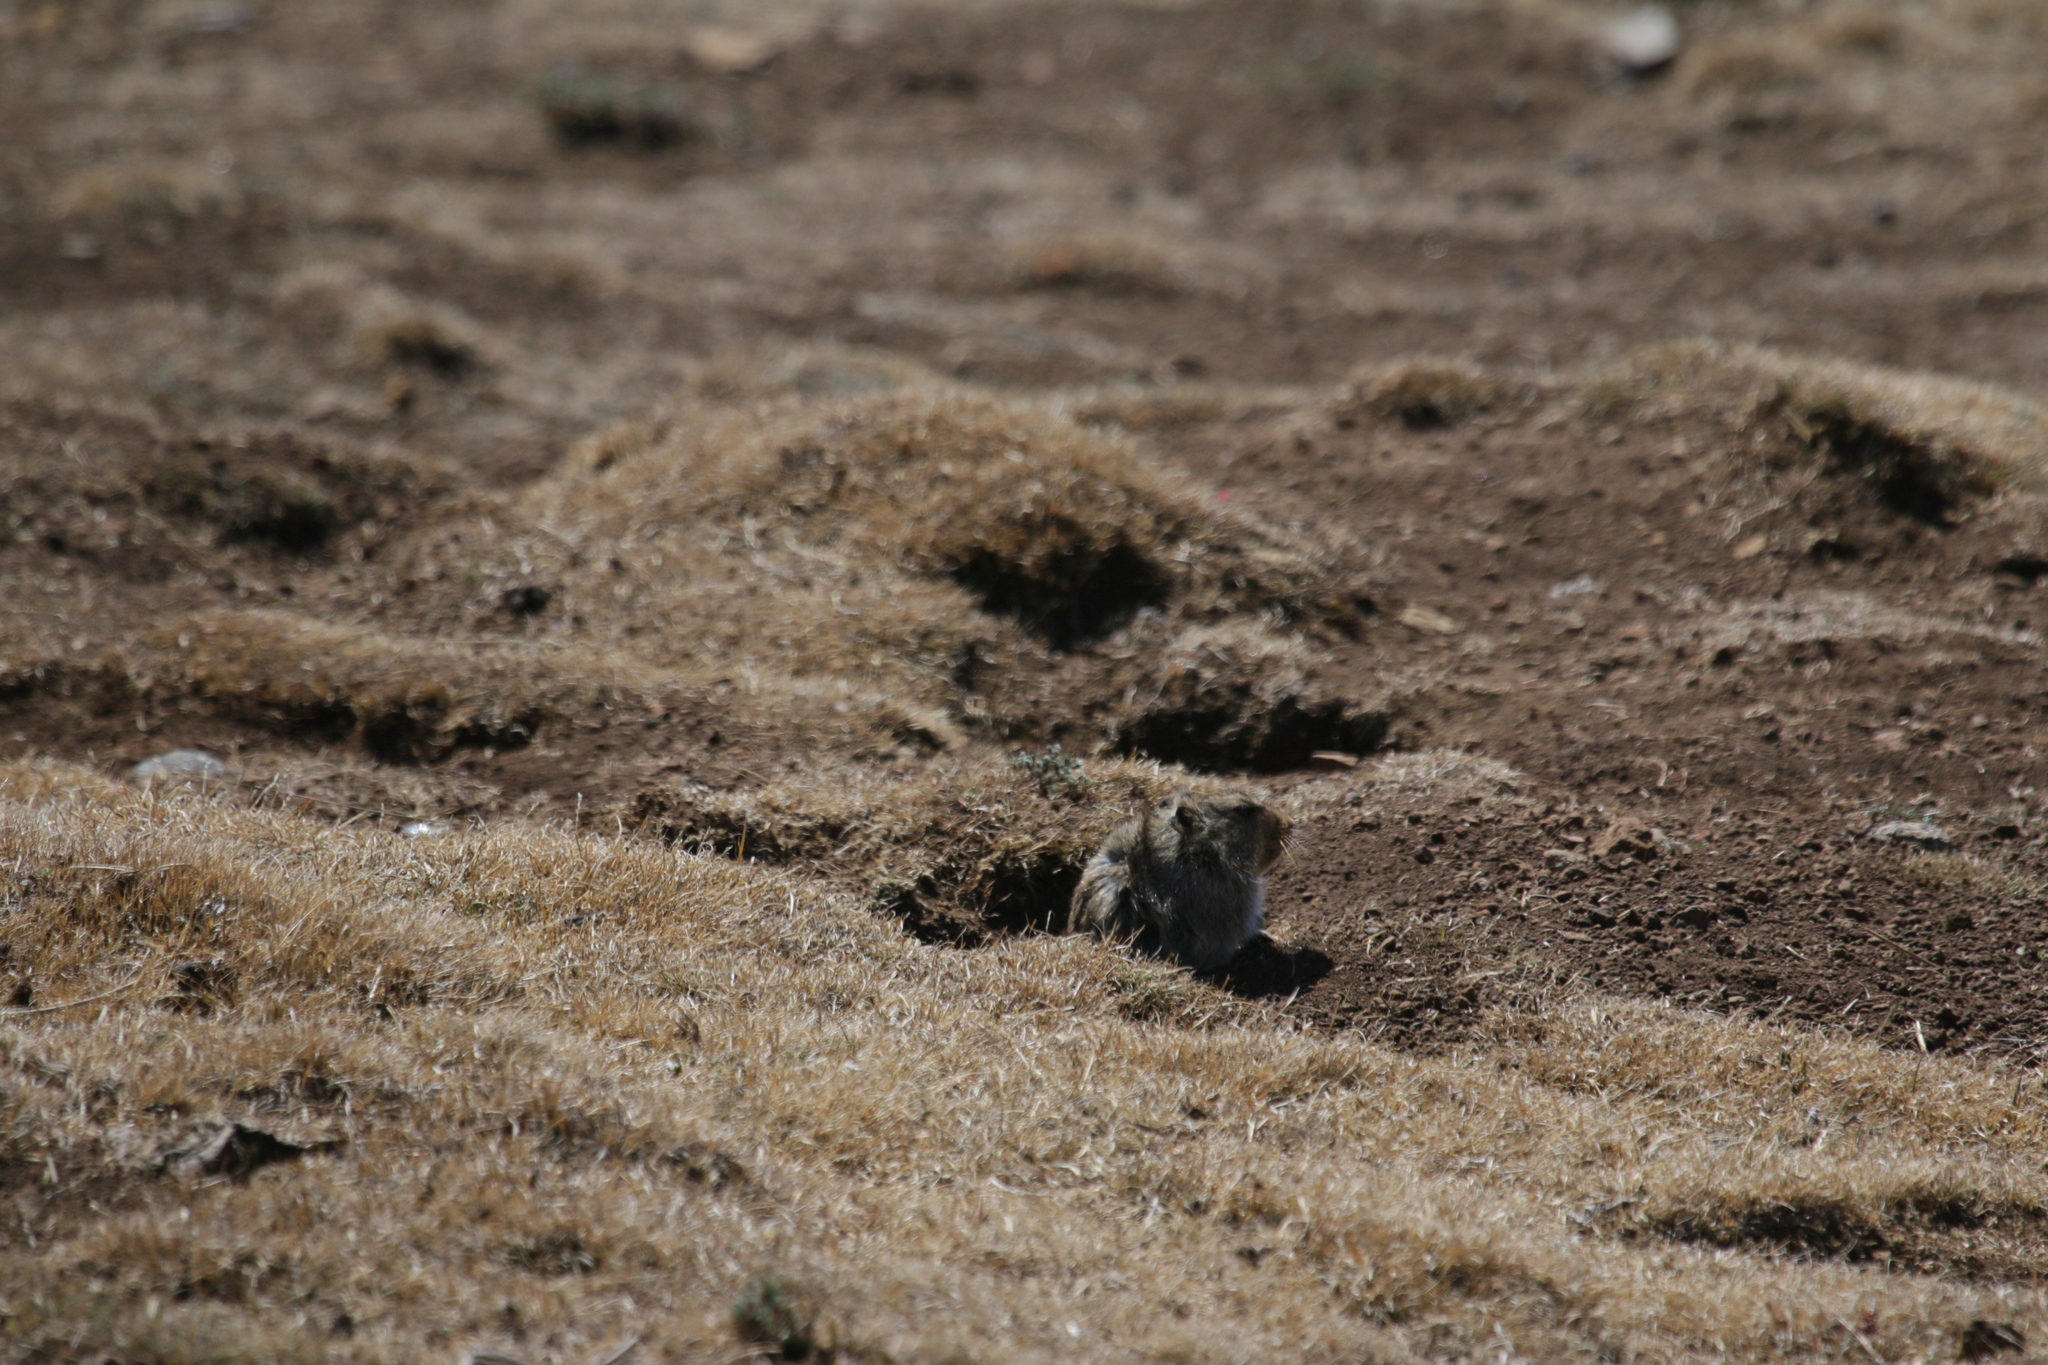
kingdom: Animalia
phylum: Chordata
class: Mammalia
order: Rodentia
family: Muridae
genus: Myotomys
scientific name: Myotomys sloggetti
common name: Rock karroo rat
